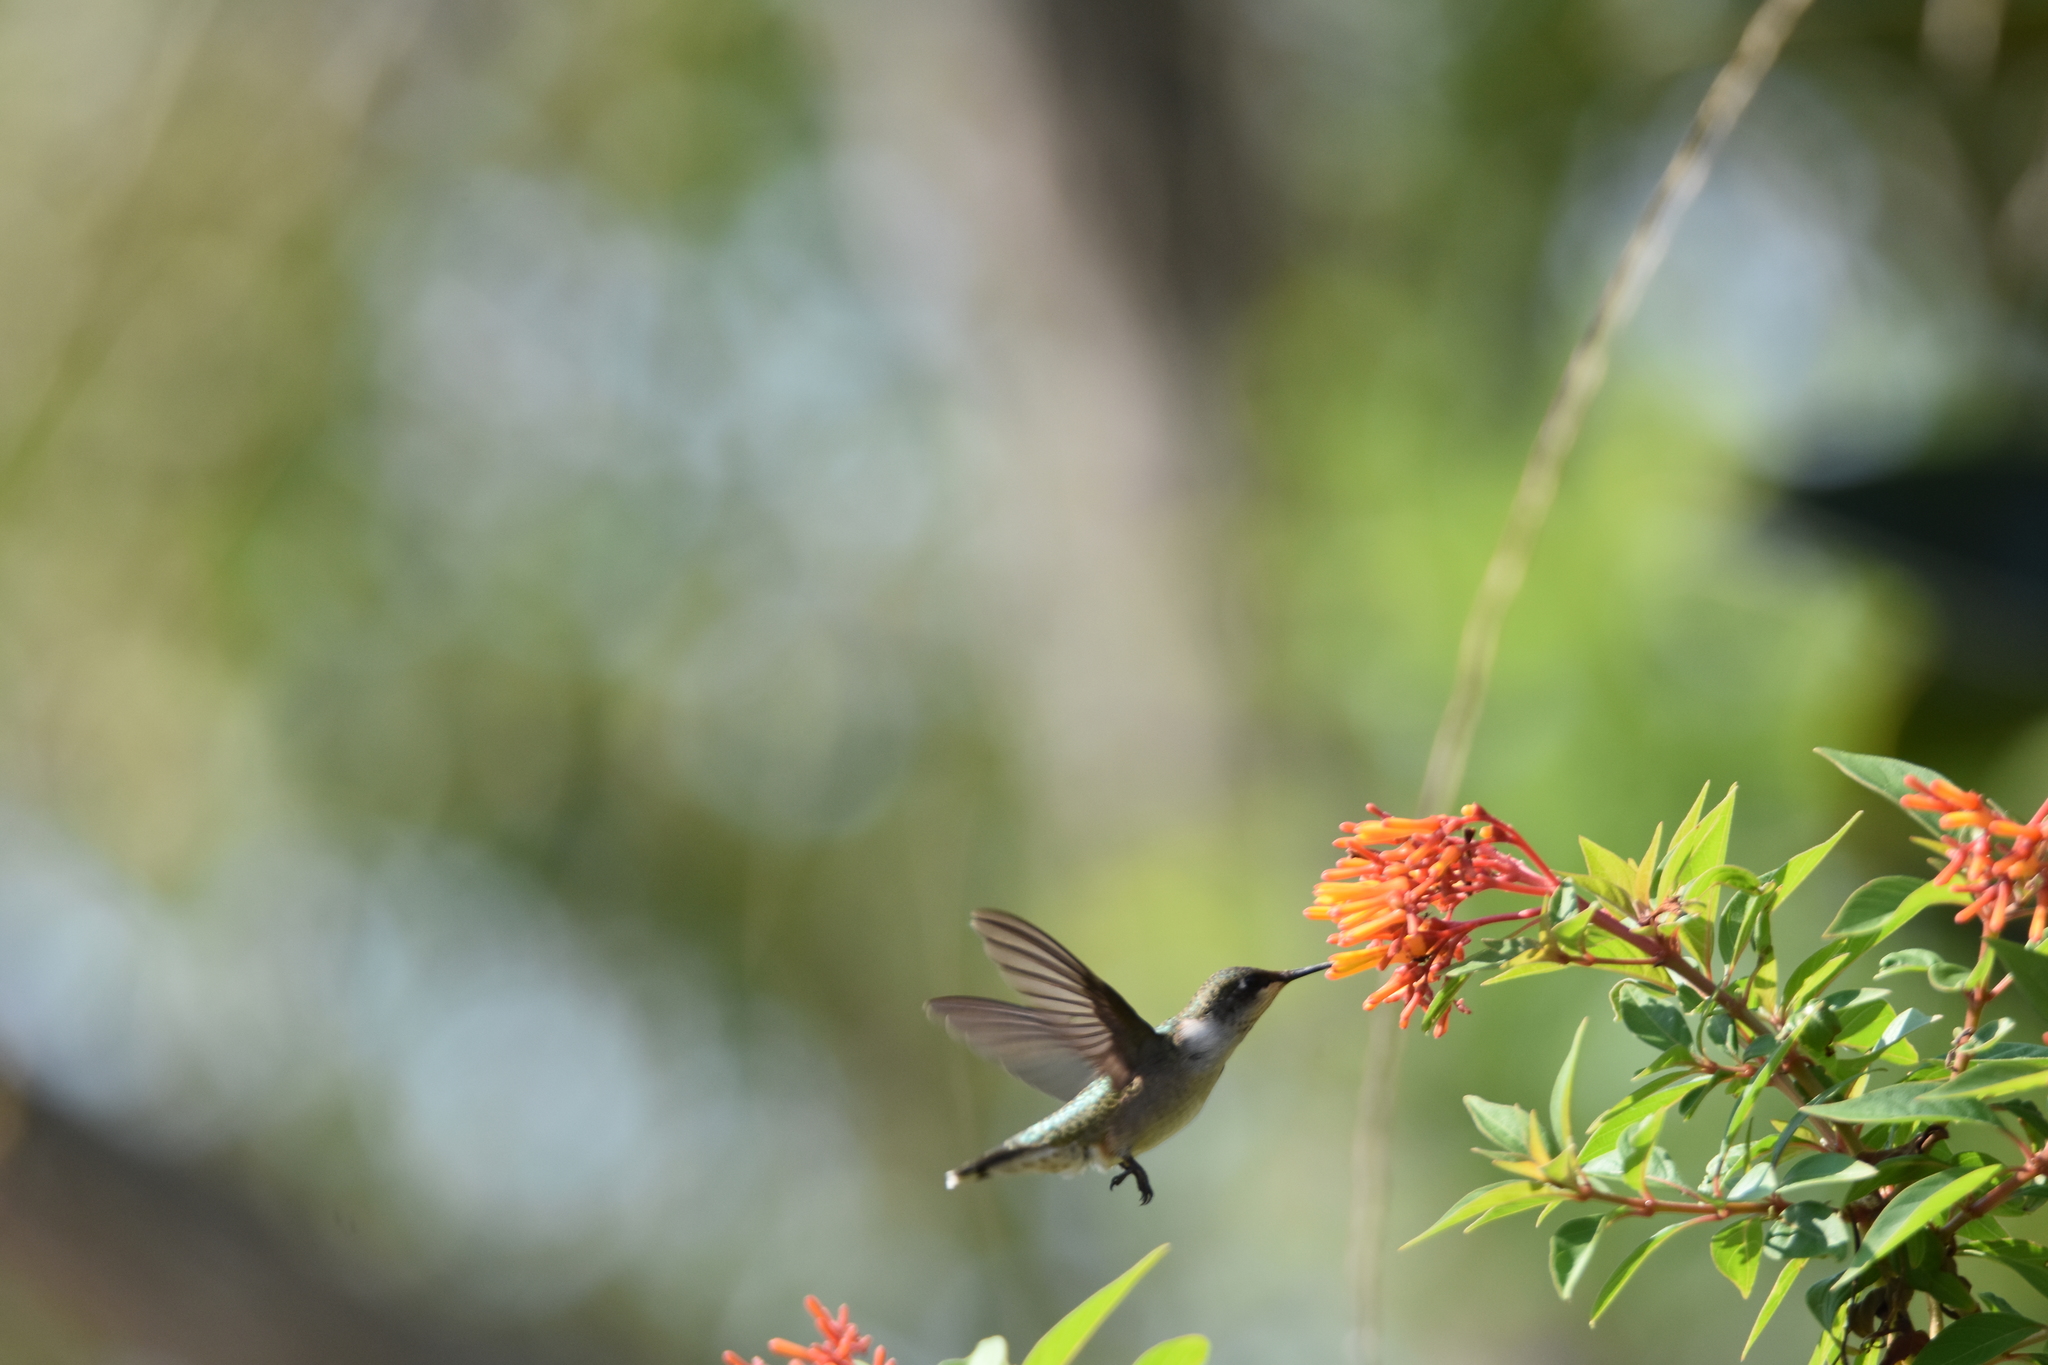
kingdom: Animalia
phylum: Chordata
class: Aves
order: Apodiformes
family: Trochilidae
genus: Archilochus
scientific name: Archilochus colubris
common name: Ruby-throated hummingbird
